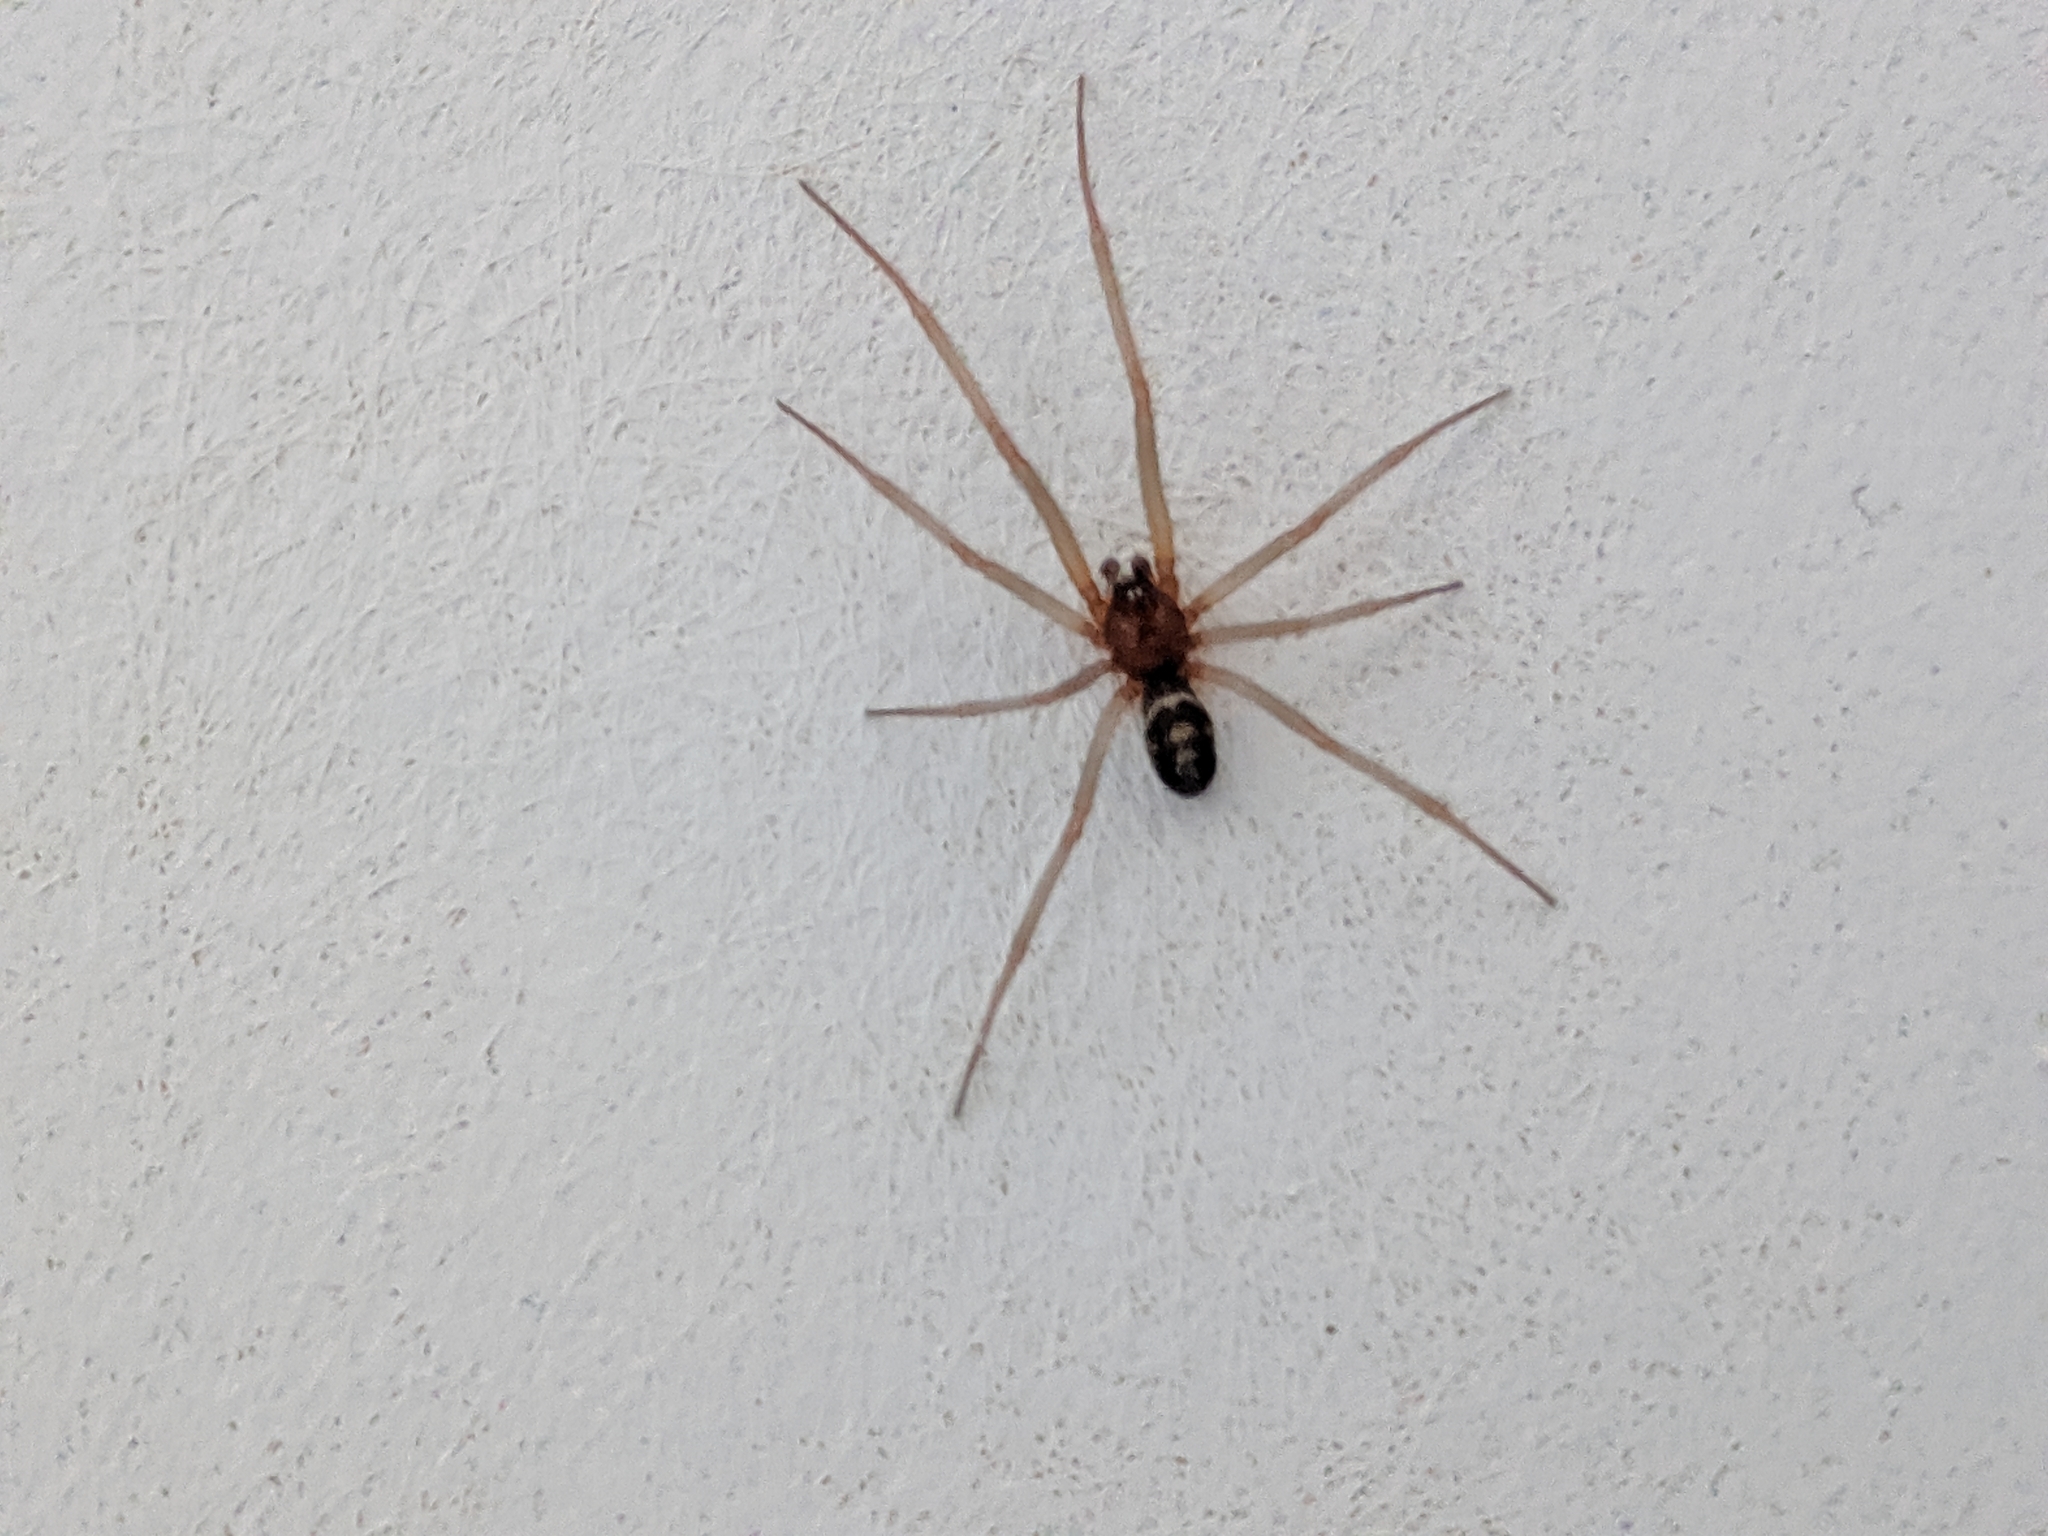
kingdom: Animalia
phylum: Arthropoda
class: Arachnida
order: Araneae
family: Theridiidae
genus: Steatoda
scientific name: Steatoda grossa
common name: False black widow
